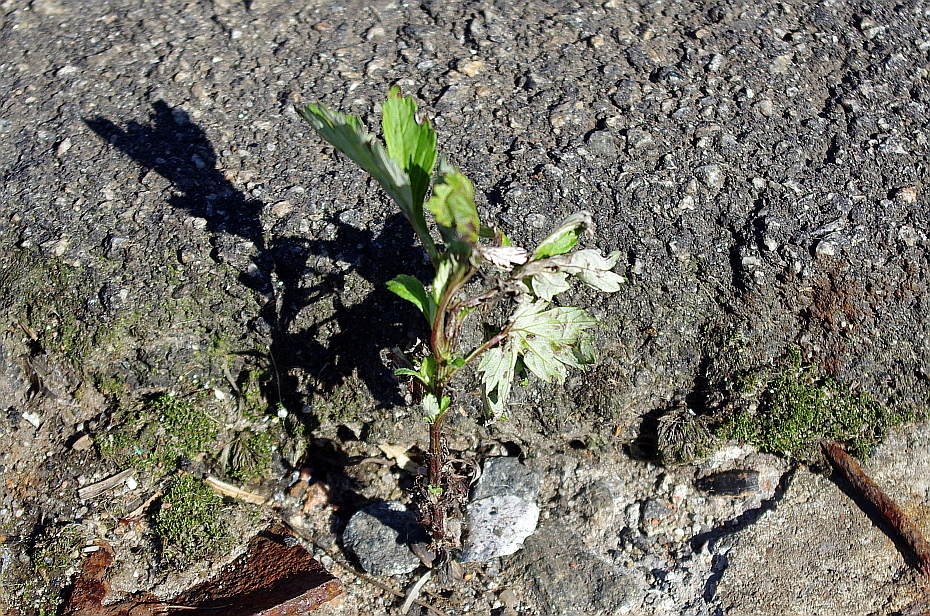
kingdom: Plantae
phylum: Tracheophyta
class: Magnoliopsida
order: Asterales
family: Asteraceae
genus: Artemisia
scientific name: Artemisia vulgaris
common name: Mugwort
